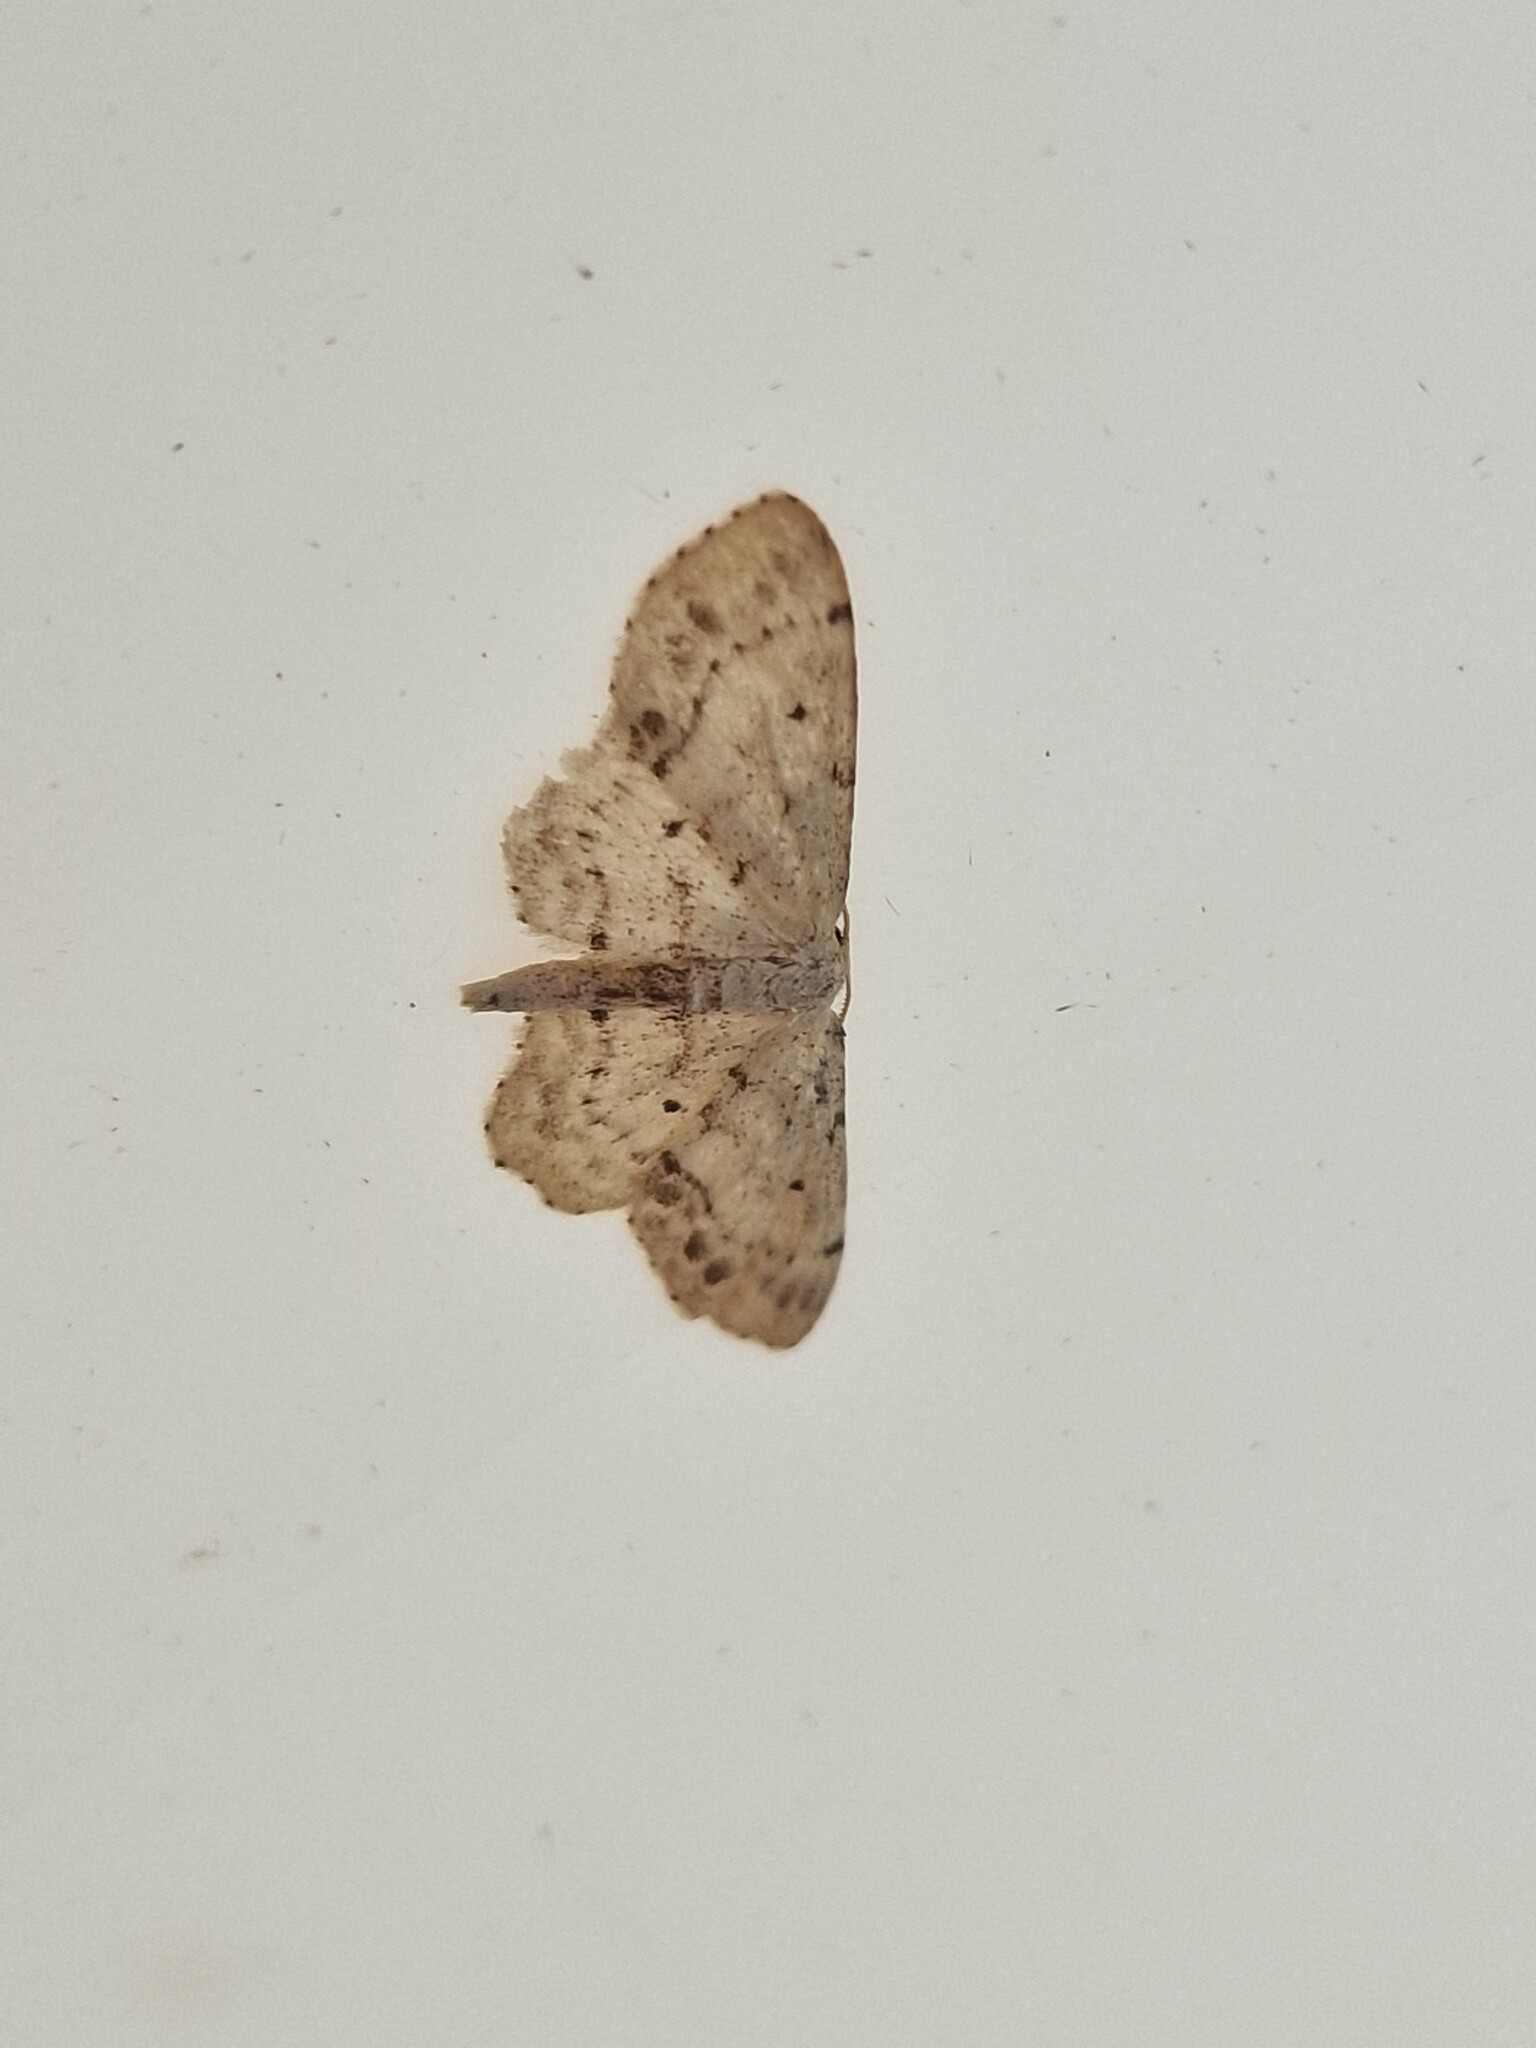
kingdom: Animalia
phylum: Arthropoda
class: Insecta
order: Lepidoptera
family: Geometridae
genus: Idaea
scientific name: Idaea dimidiata
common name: Single-dotted wave
